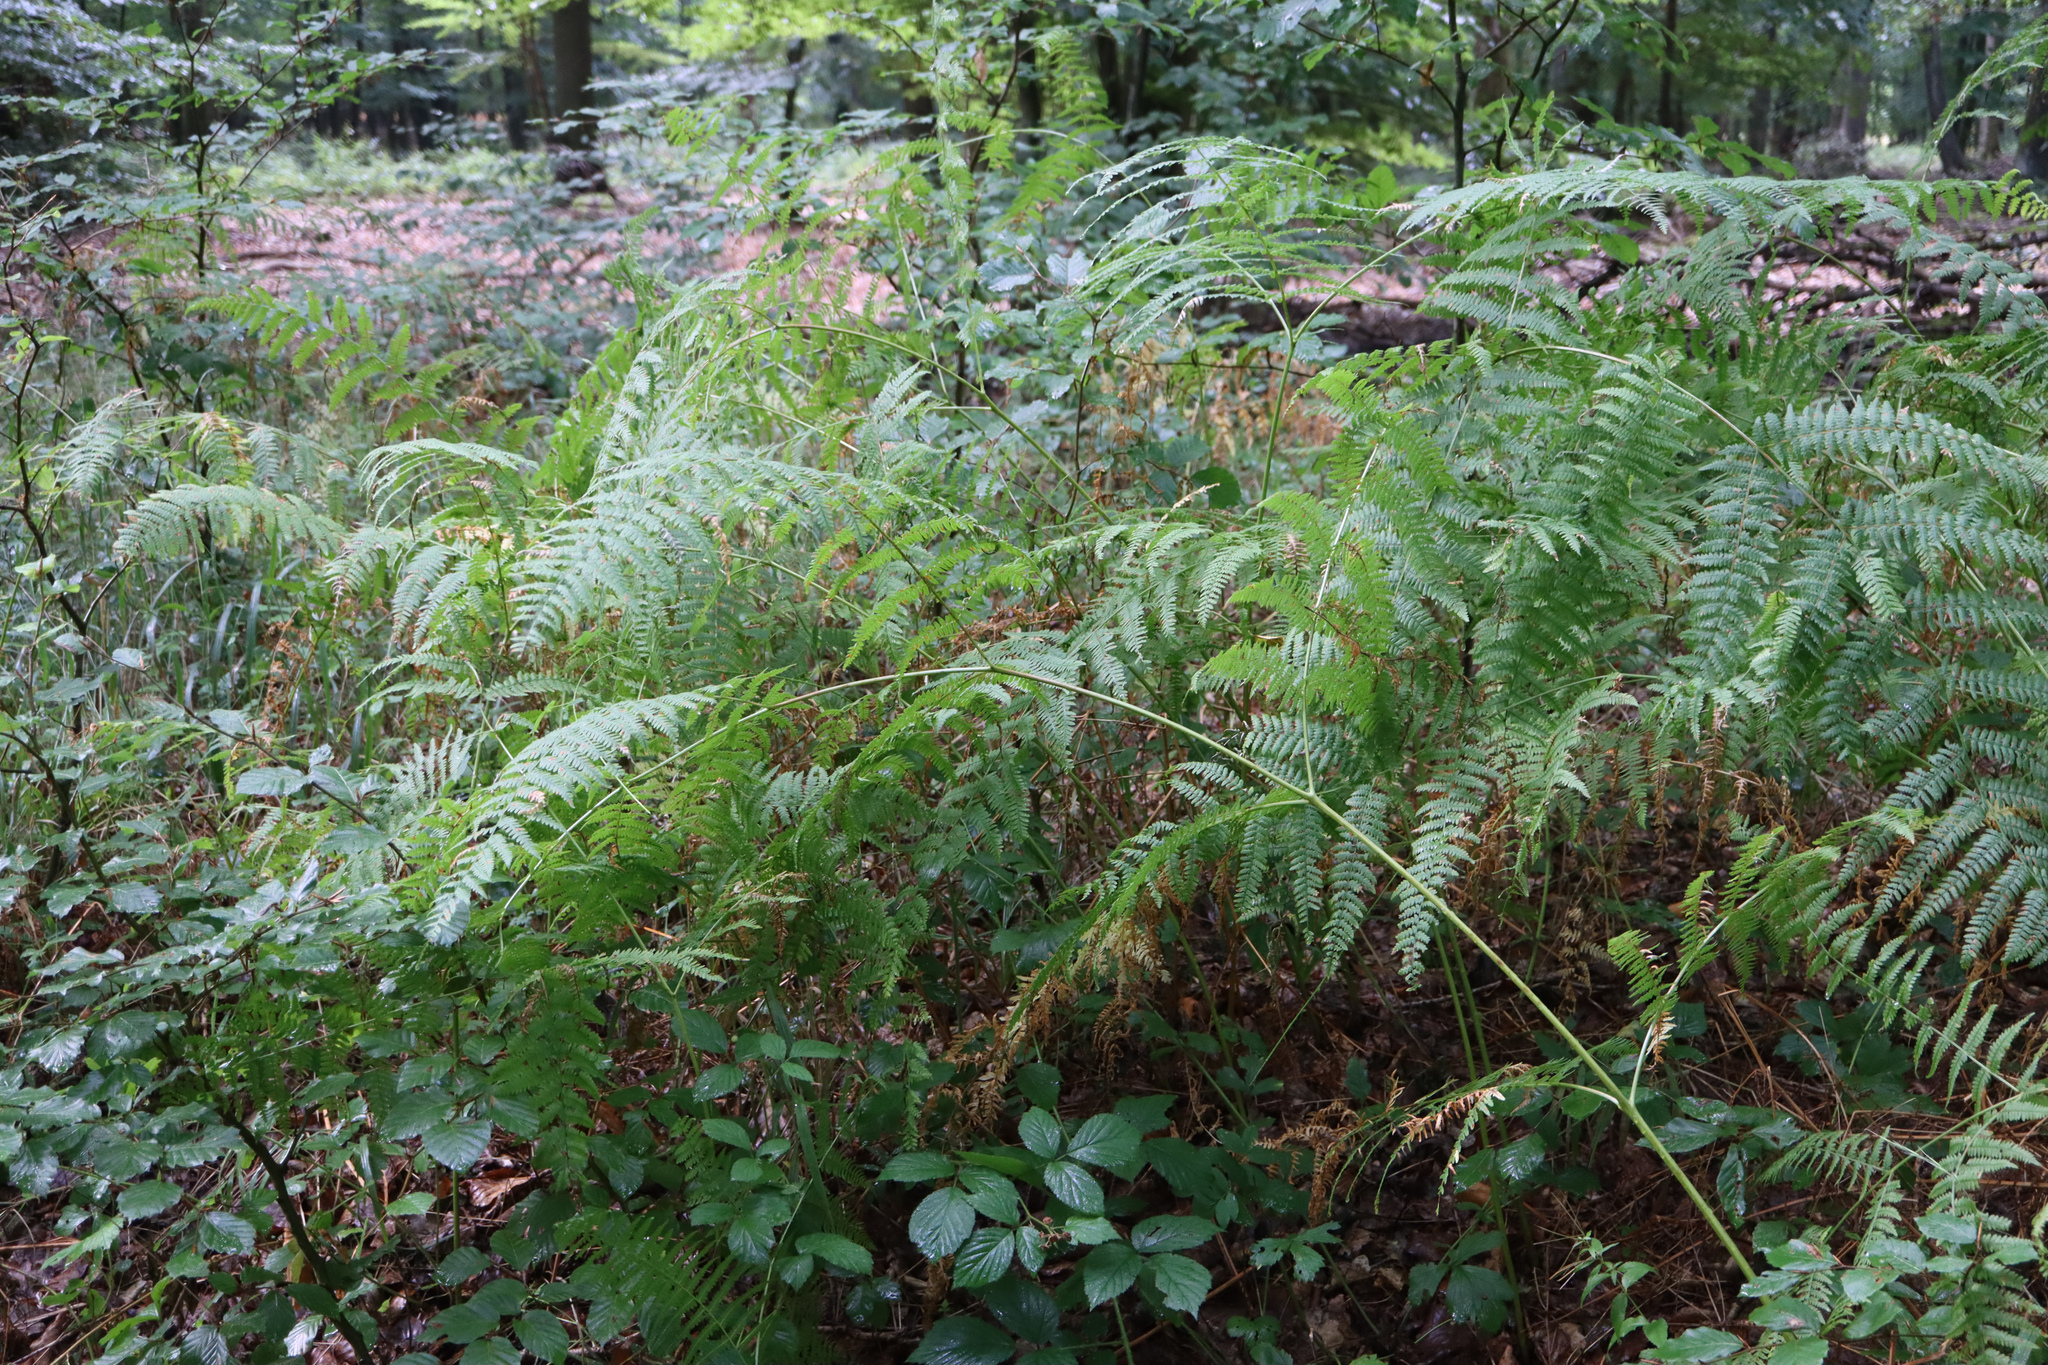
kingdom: Plantae
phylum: Tracheophyta
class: Polypodiopsida
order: Polypodiales
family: Dennstaedtiaceae
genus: Pteridium
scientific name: Pteridium aquilinum
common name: Bracken
